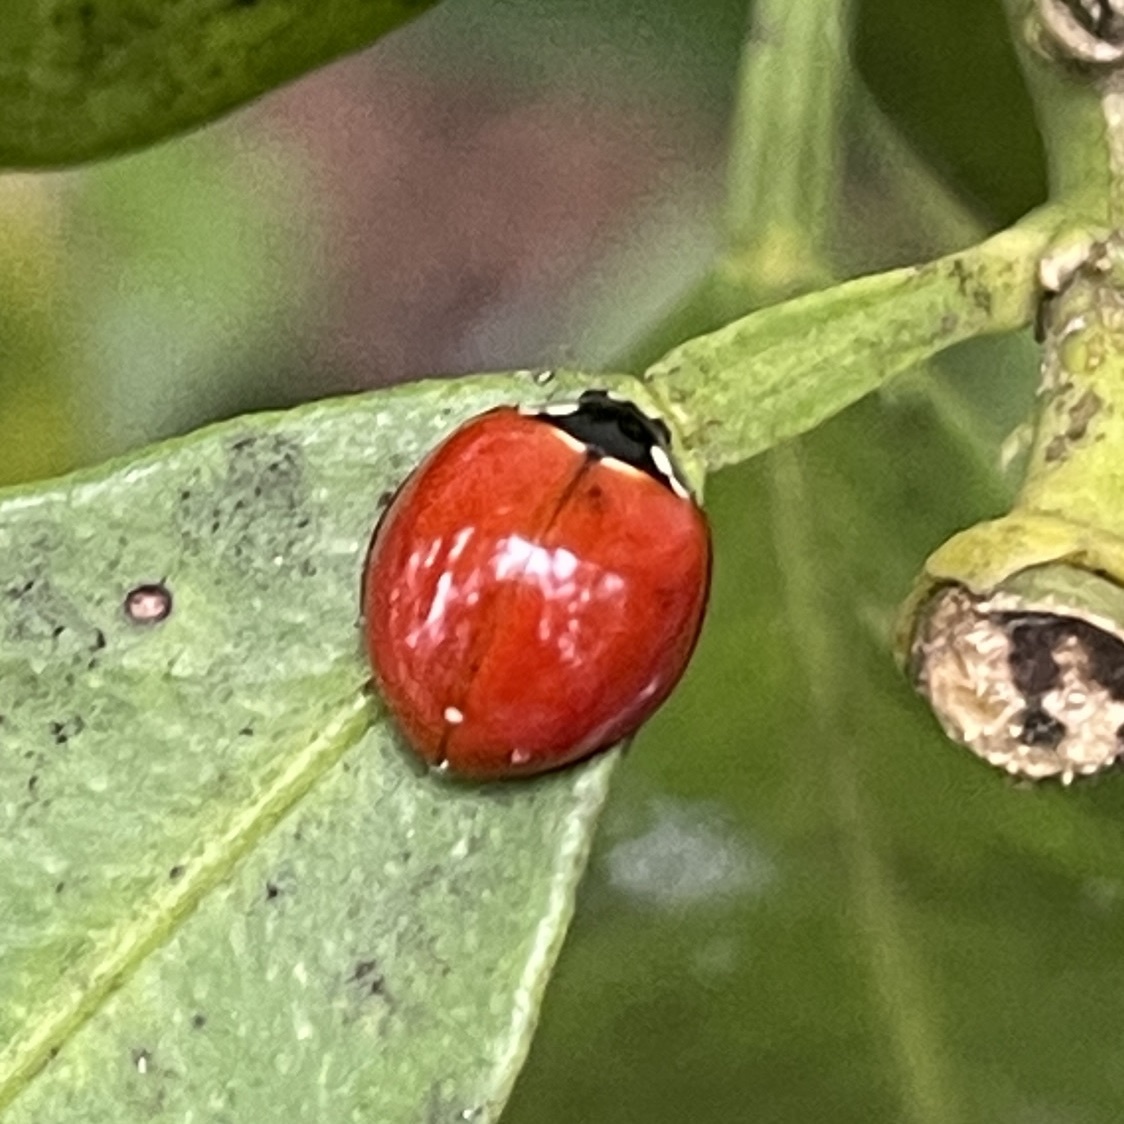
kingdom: Animalia
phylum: Arthropoda
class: Insecta
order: Coleoptera
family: Coccinellidae
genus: Cycloneda
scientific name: Cycloneda sanguinea
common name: Ladybird beetle
